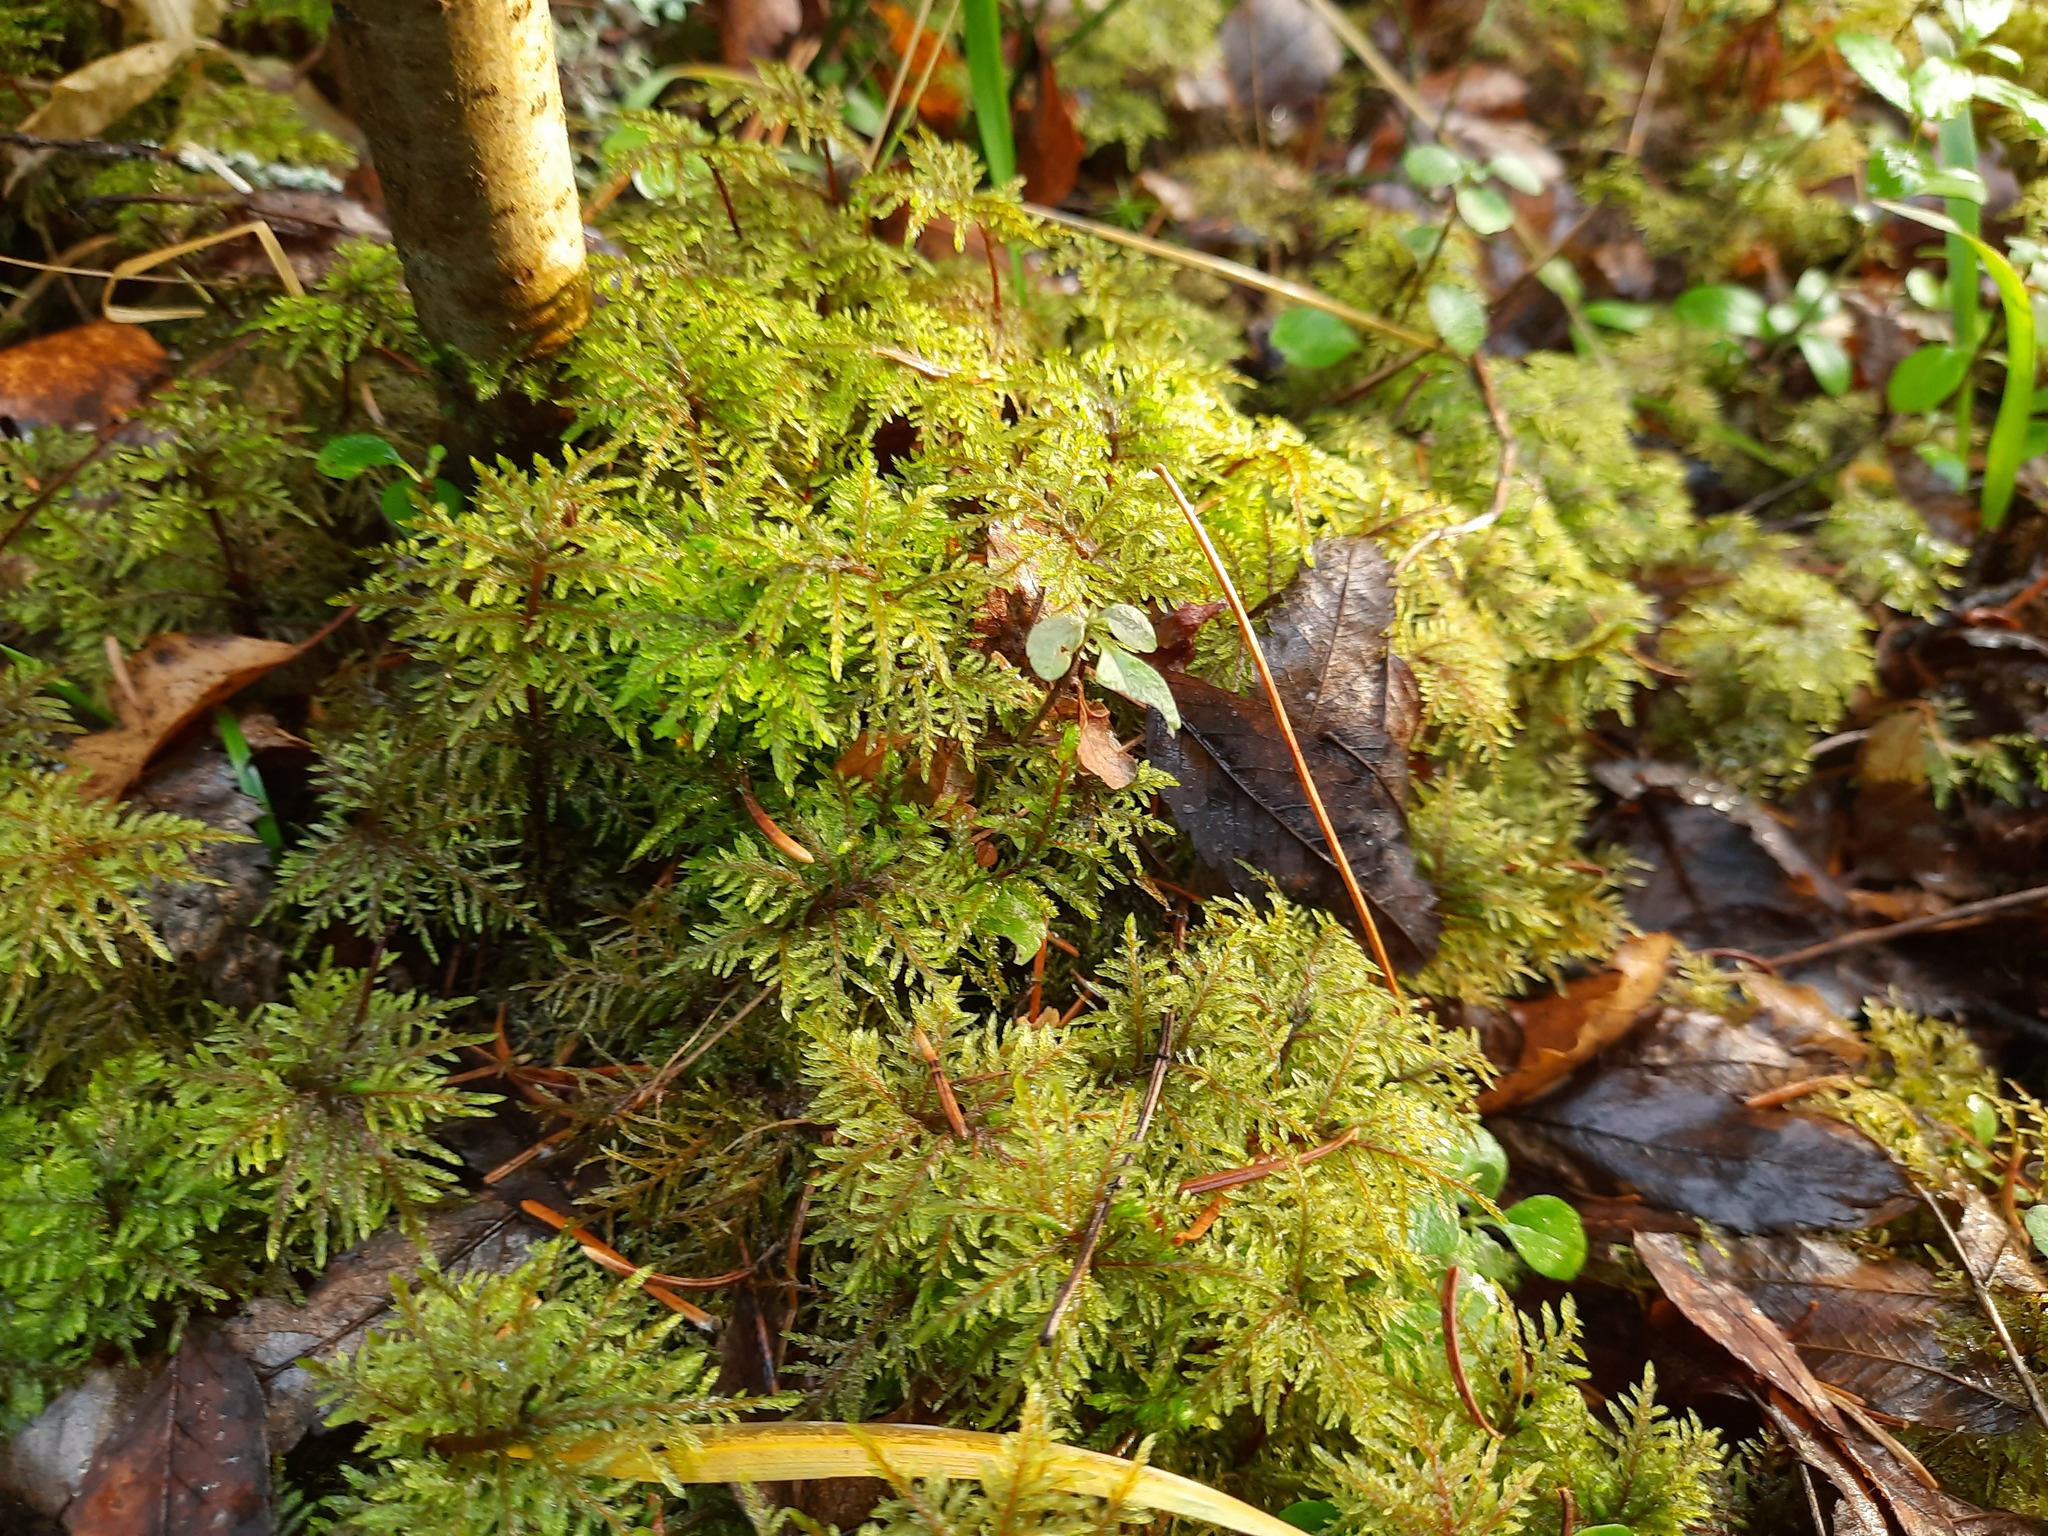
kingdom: Plantae
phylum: Bryophyta
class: Bryopsida
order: Hypnales
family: Hylocomiaceae
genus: Hylocomium
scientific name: Hylocomium splendens
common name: Stairstep moss
